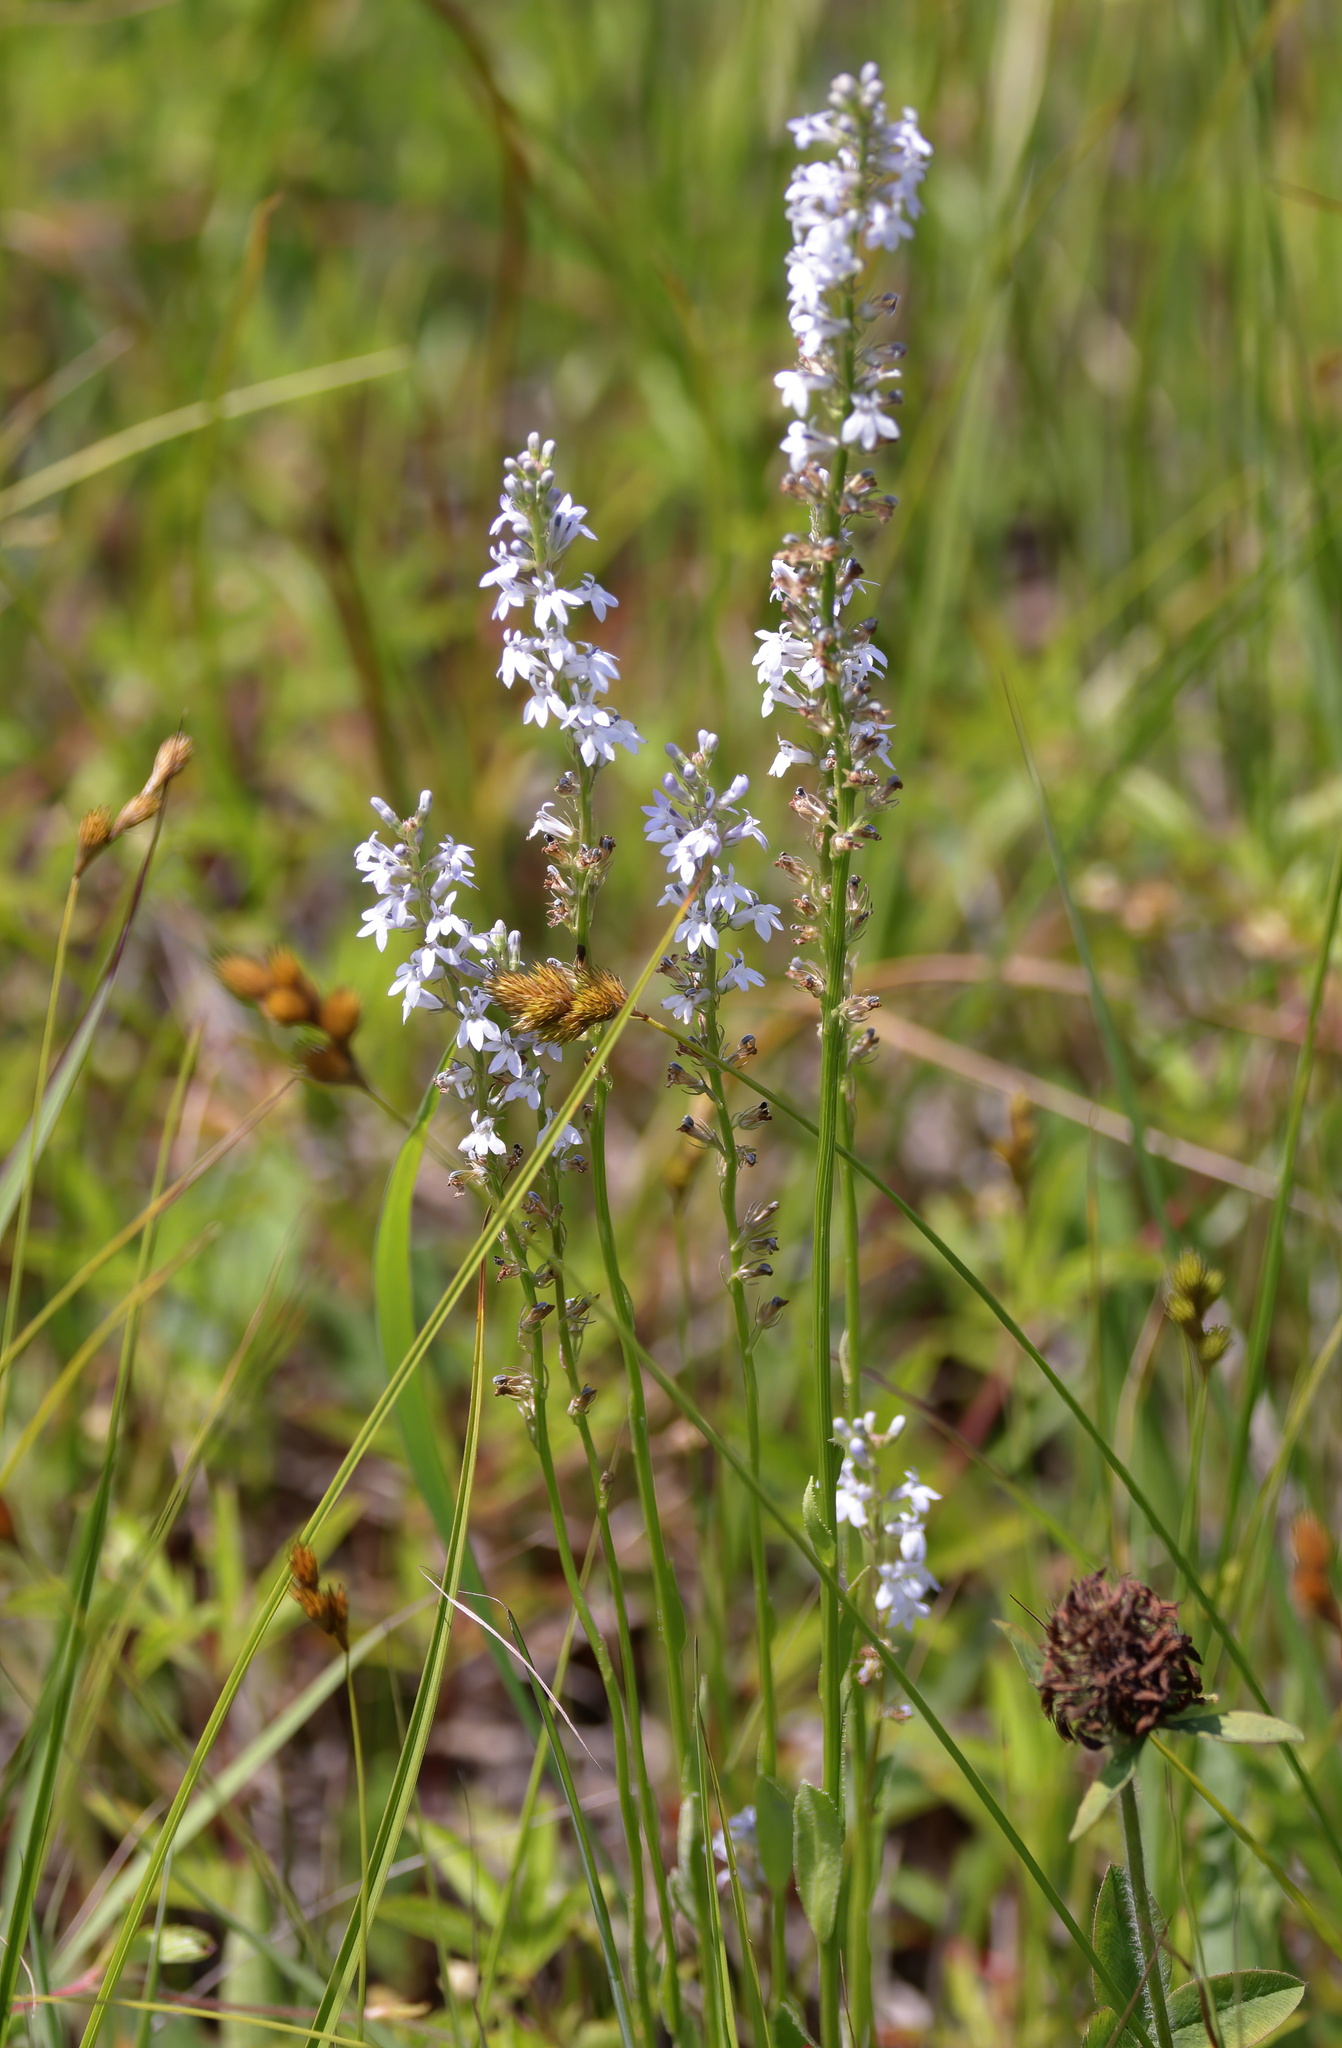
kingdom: Plantae
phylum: Tracheophyta
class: Magnoliopsida
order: Asterales
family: Campanulaceae
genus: Lobelia
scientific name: Lobelia spicata
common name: Pale-spike lobelia
